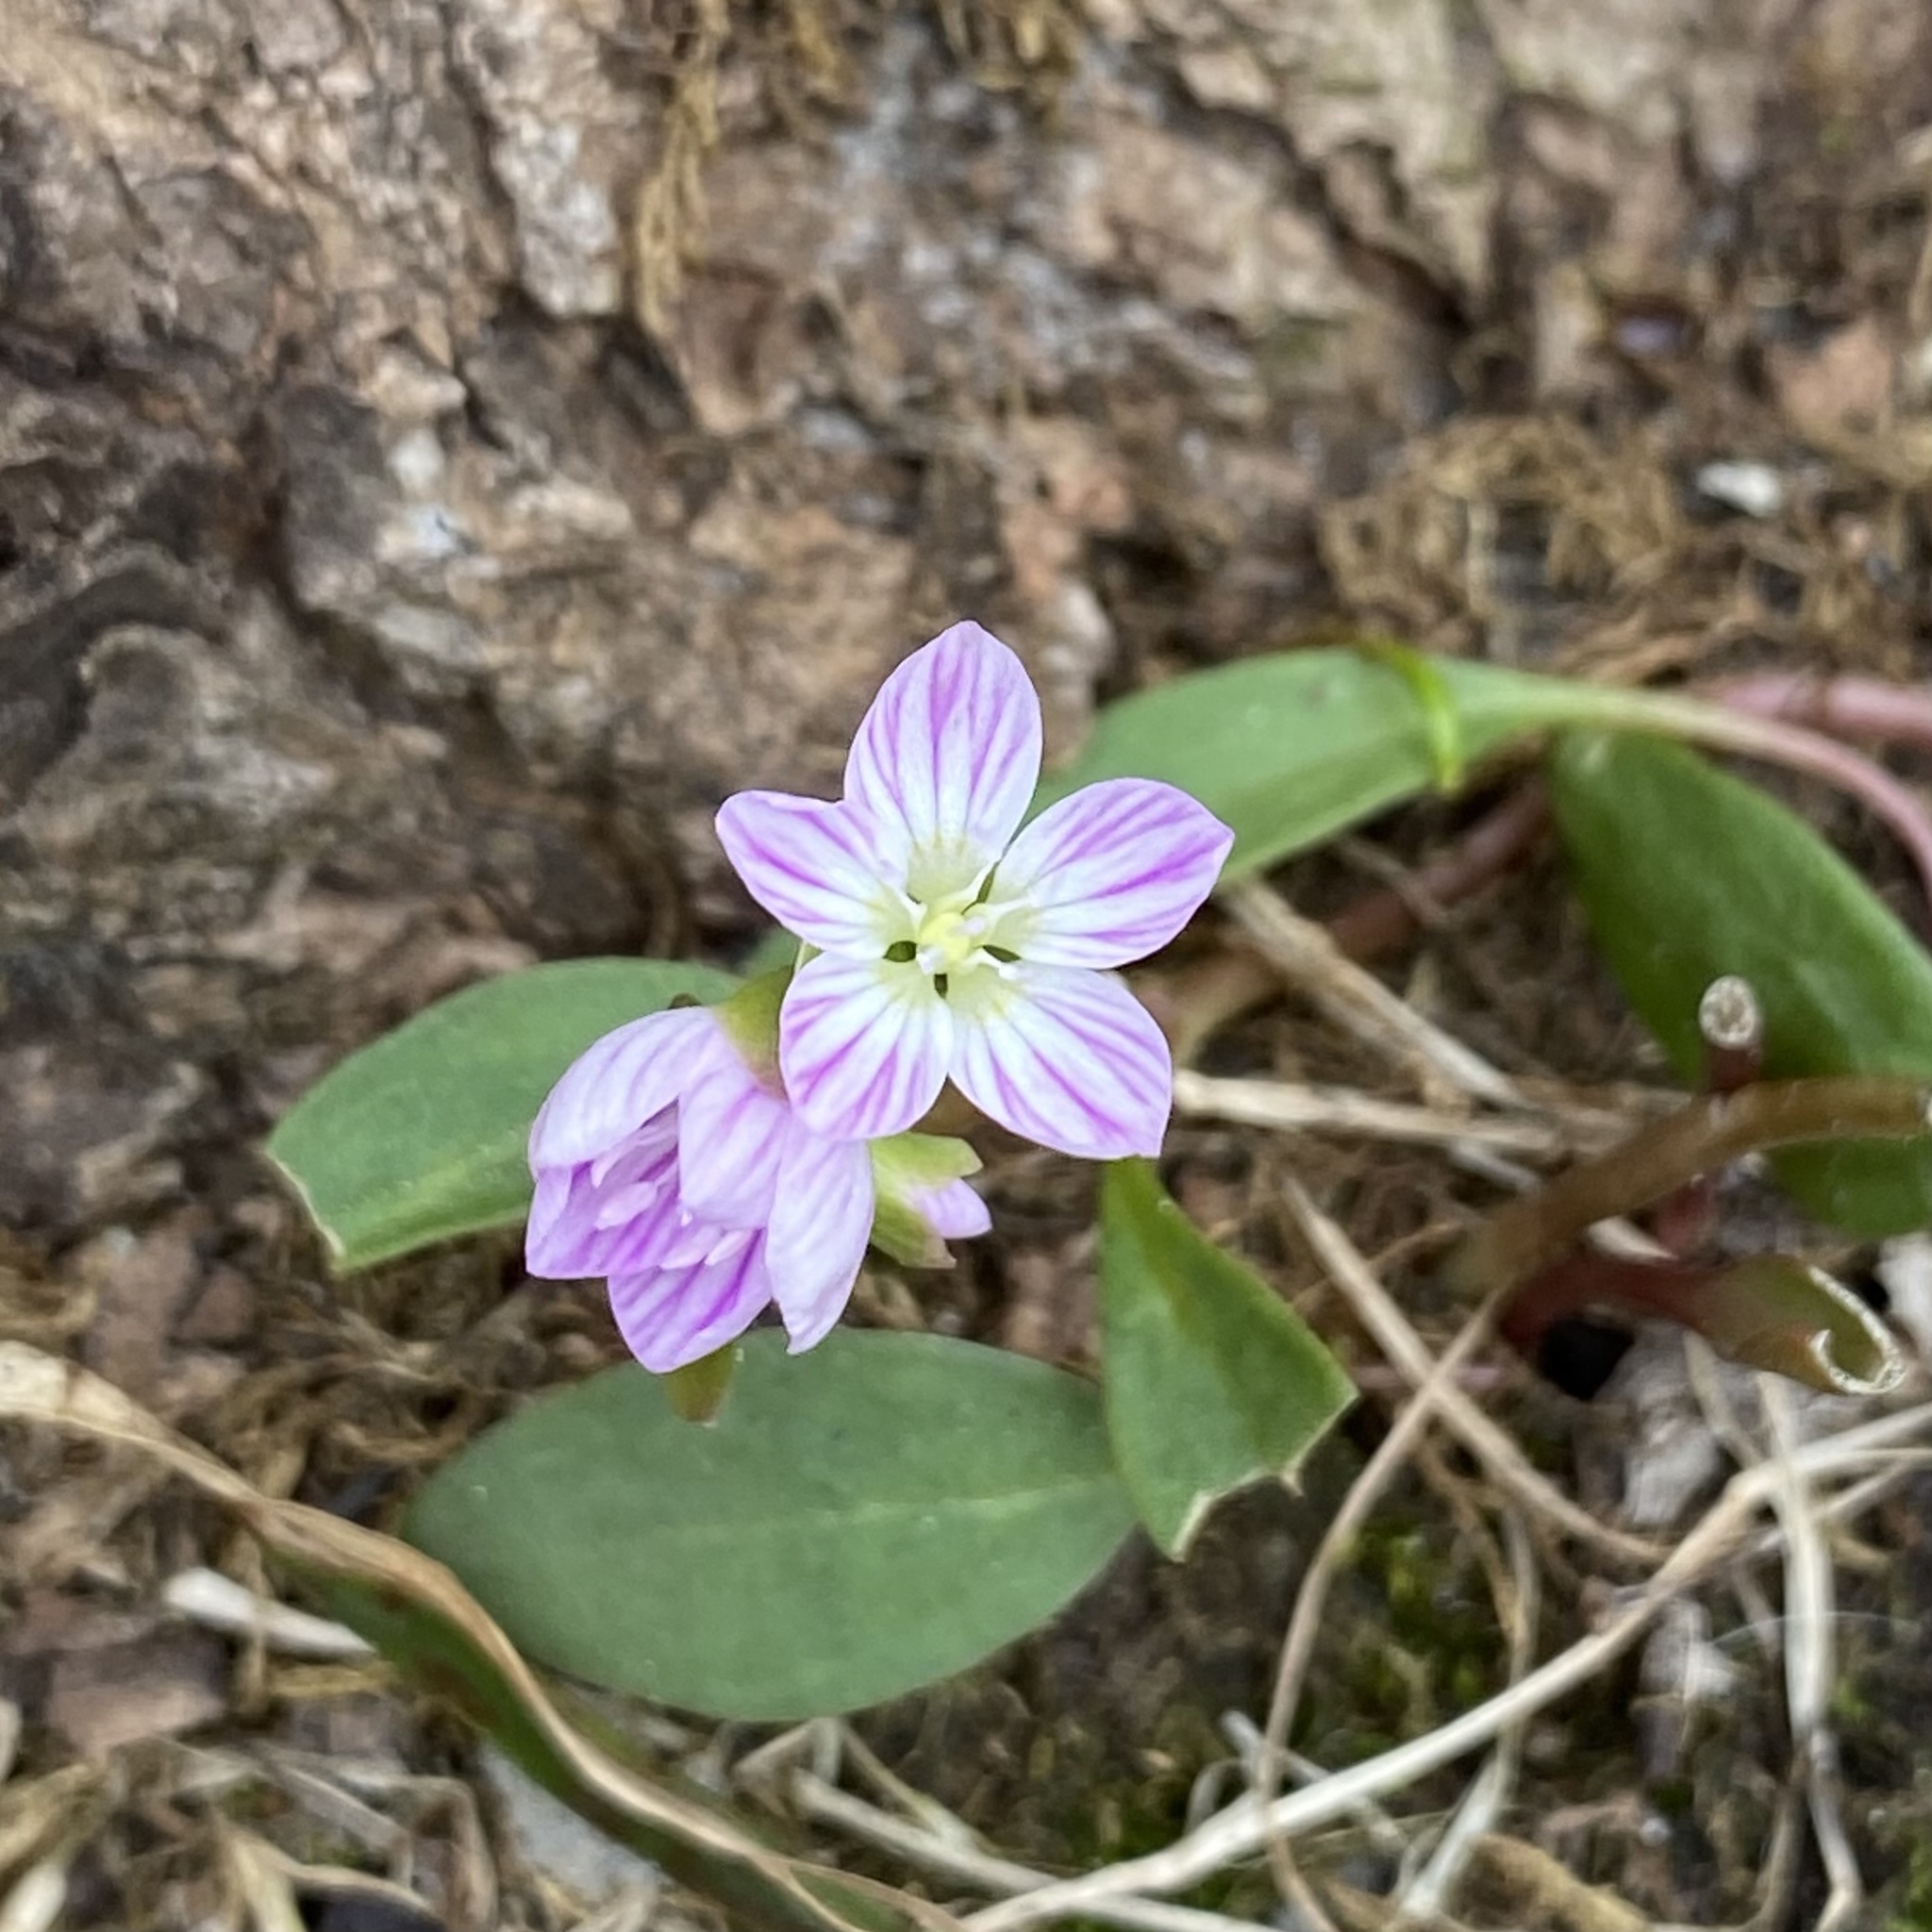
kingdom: Plantae
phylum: Tracheophyta
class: Magnoliopsida
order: Caryophyllales
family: Montiaceae
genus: Claytonia
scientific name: Claytonia caroliniana
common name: Carolina spring beauty
